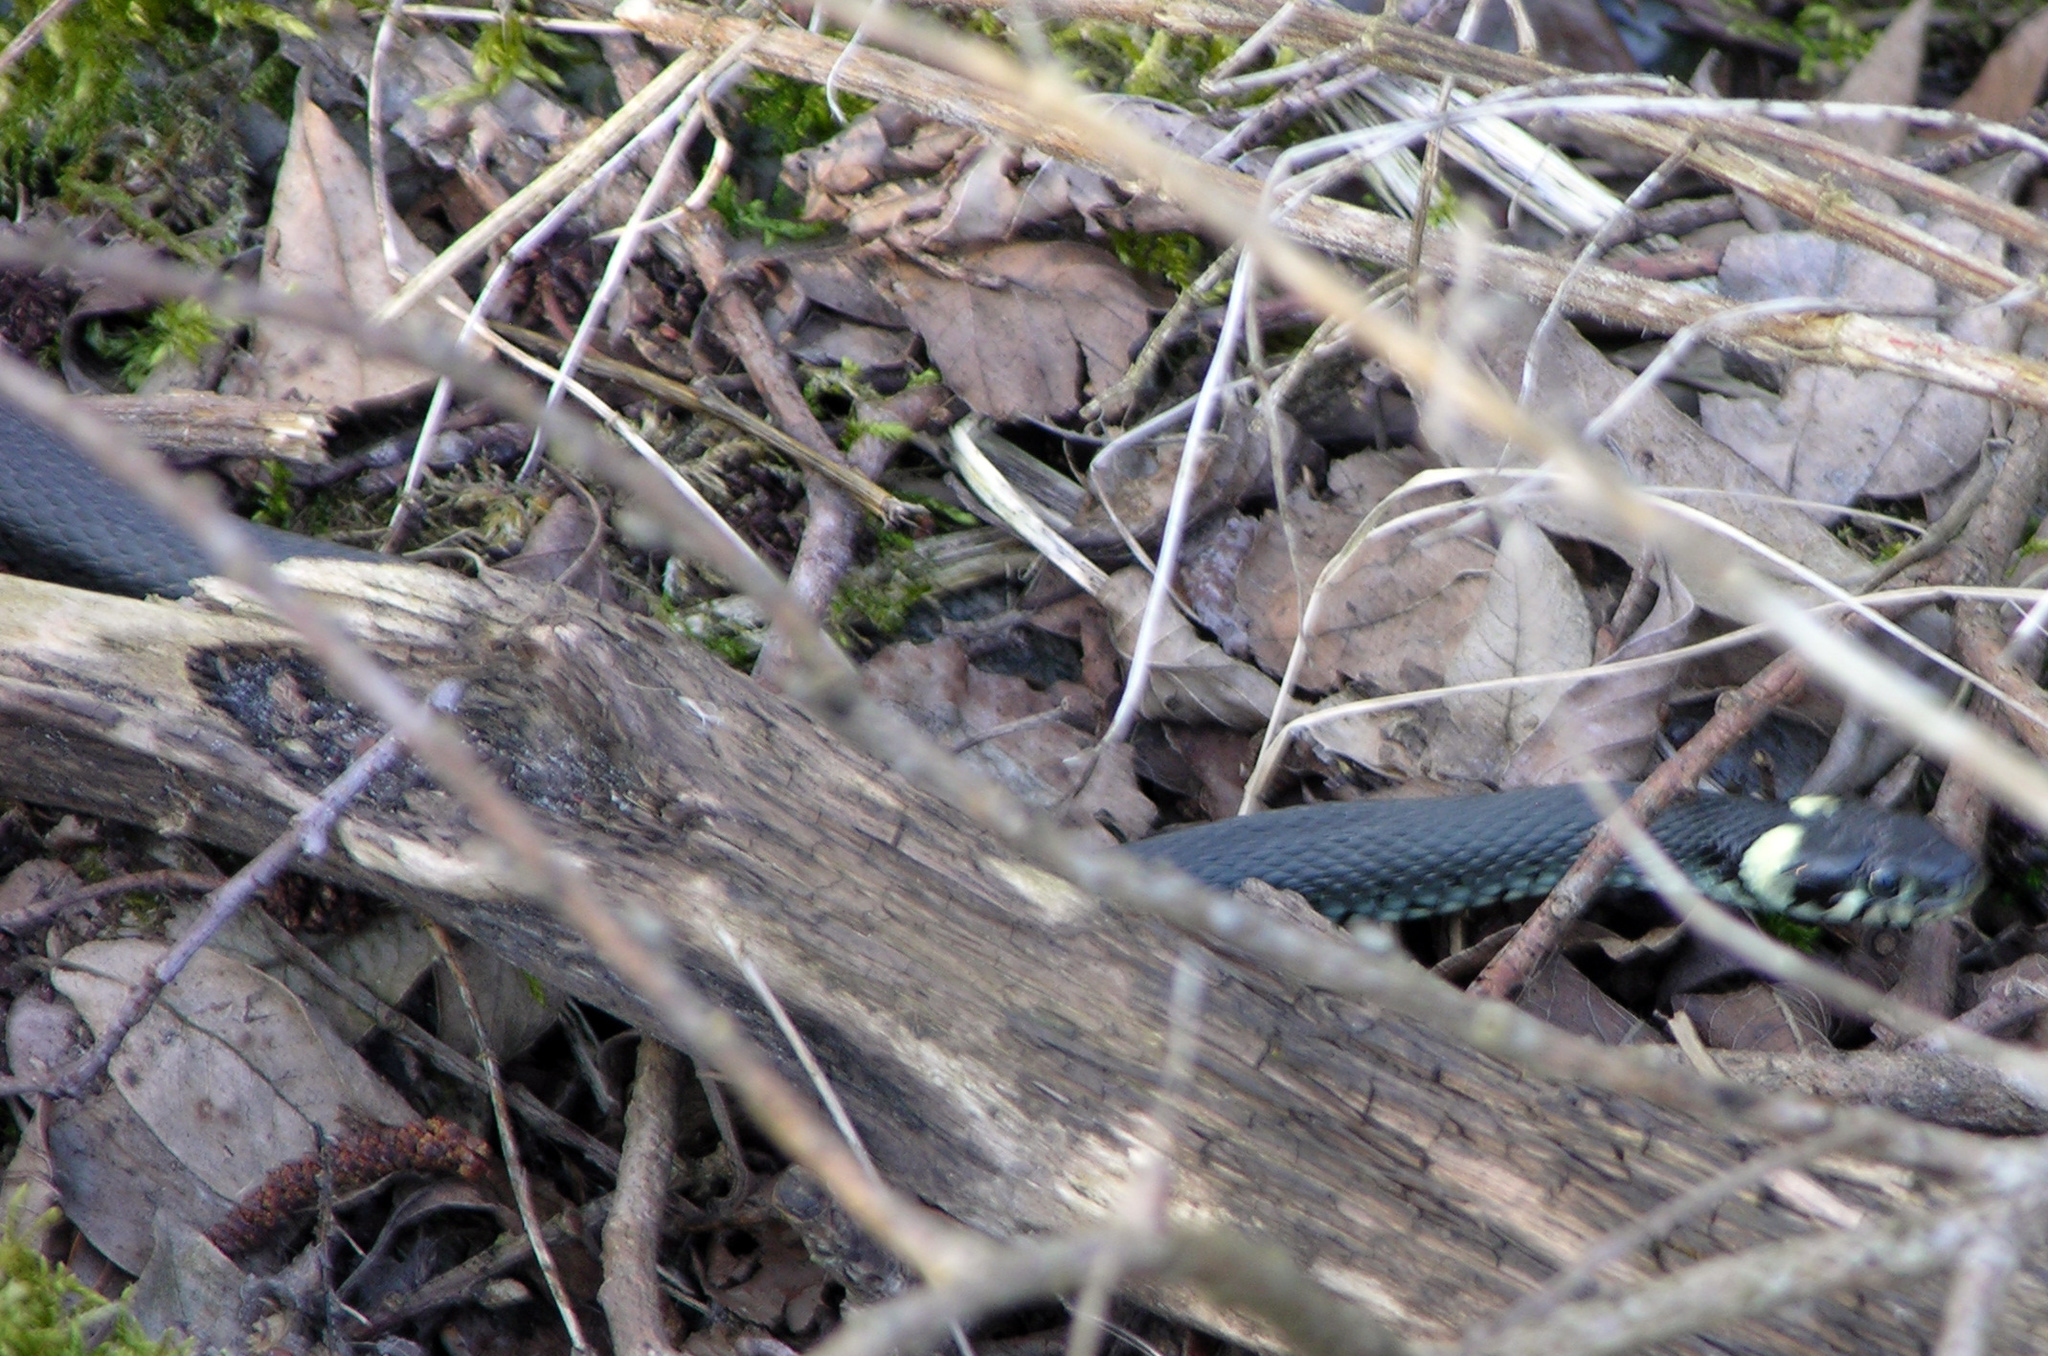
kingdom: Animalia
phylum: Chordata
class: Squamata
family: Colubridae
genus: Natrix
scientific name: Natrix natrix
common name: Grass snake
